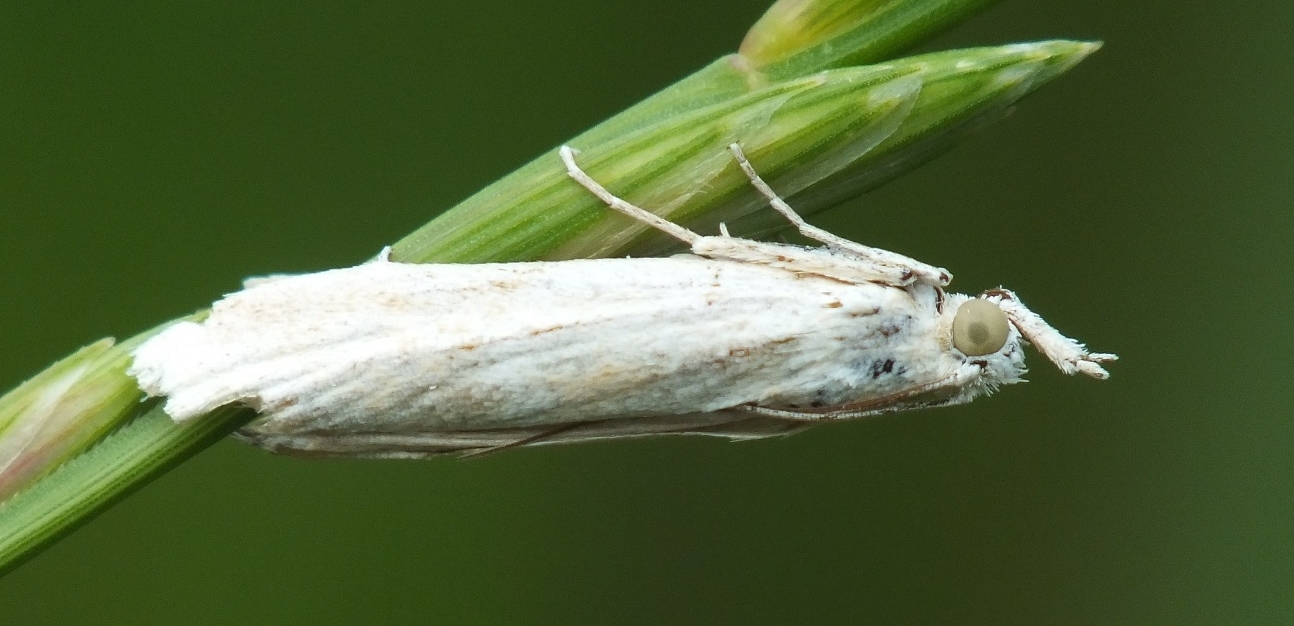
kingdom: Animalia
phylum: Arthropoda
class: Insecta
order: Lepidoptera
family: Pyralidae
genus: Selagia
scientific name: Selagia argyrella
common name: Silvery knot-horn
